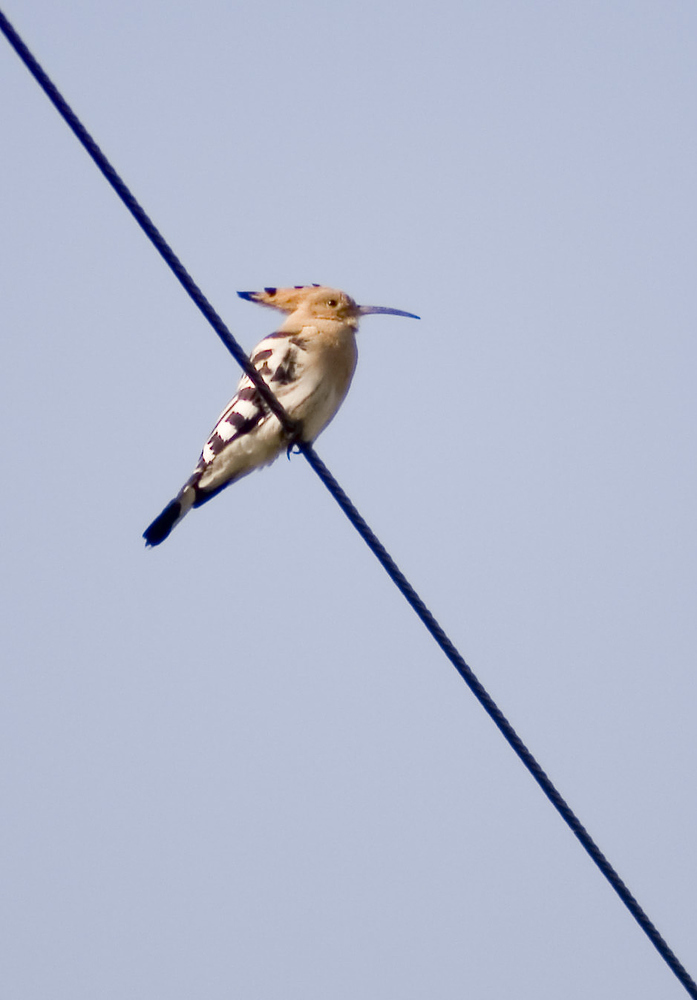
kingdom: Animalia
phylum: Chordata
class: Aves
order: Bucerotiformes
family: Upupidae
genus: Upupa
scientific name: Upupa epops
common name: Eurasian hoopoe
